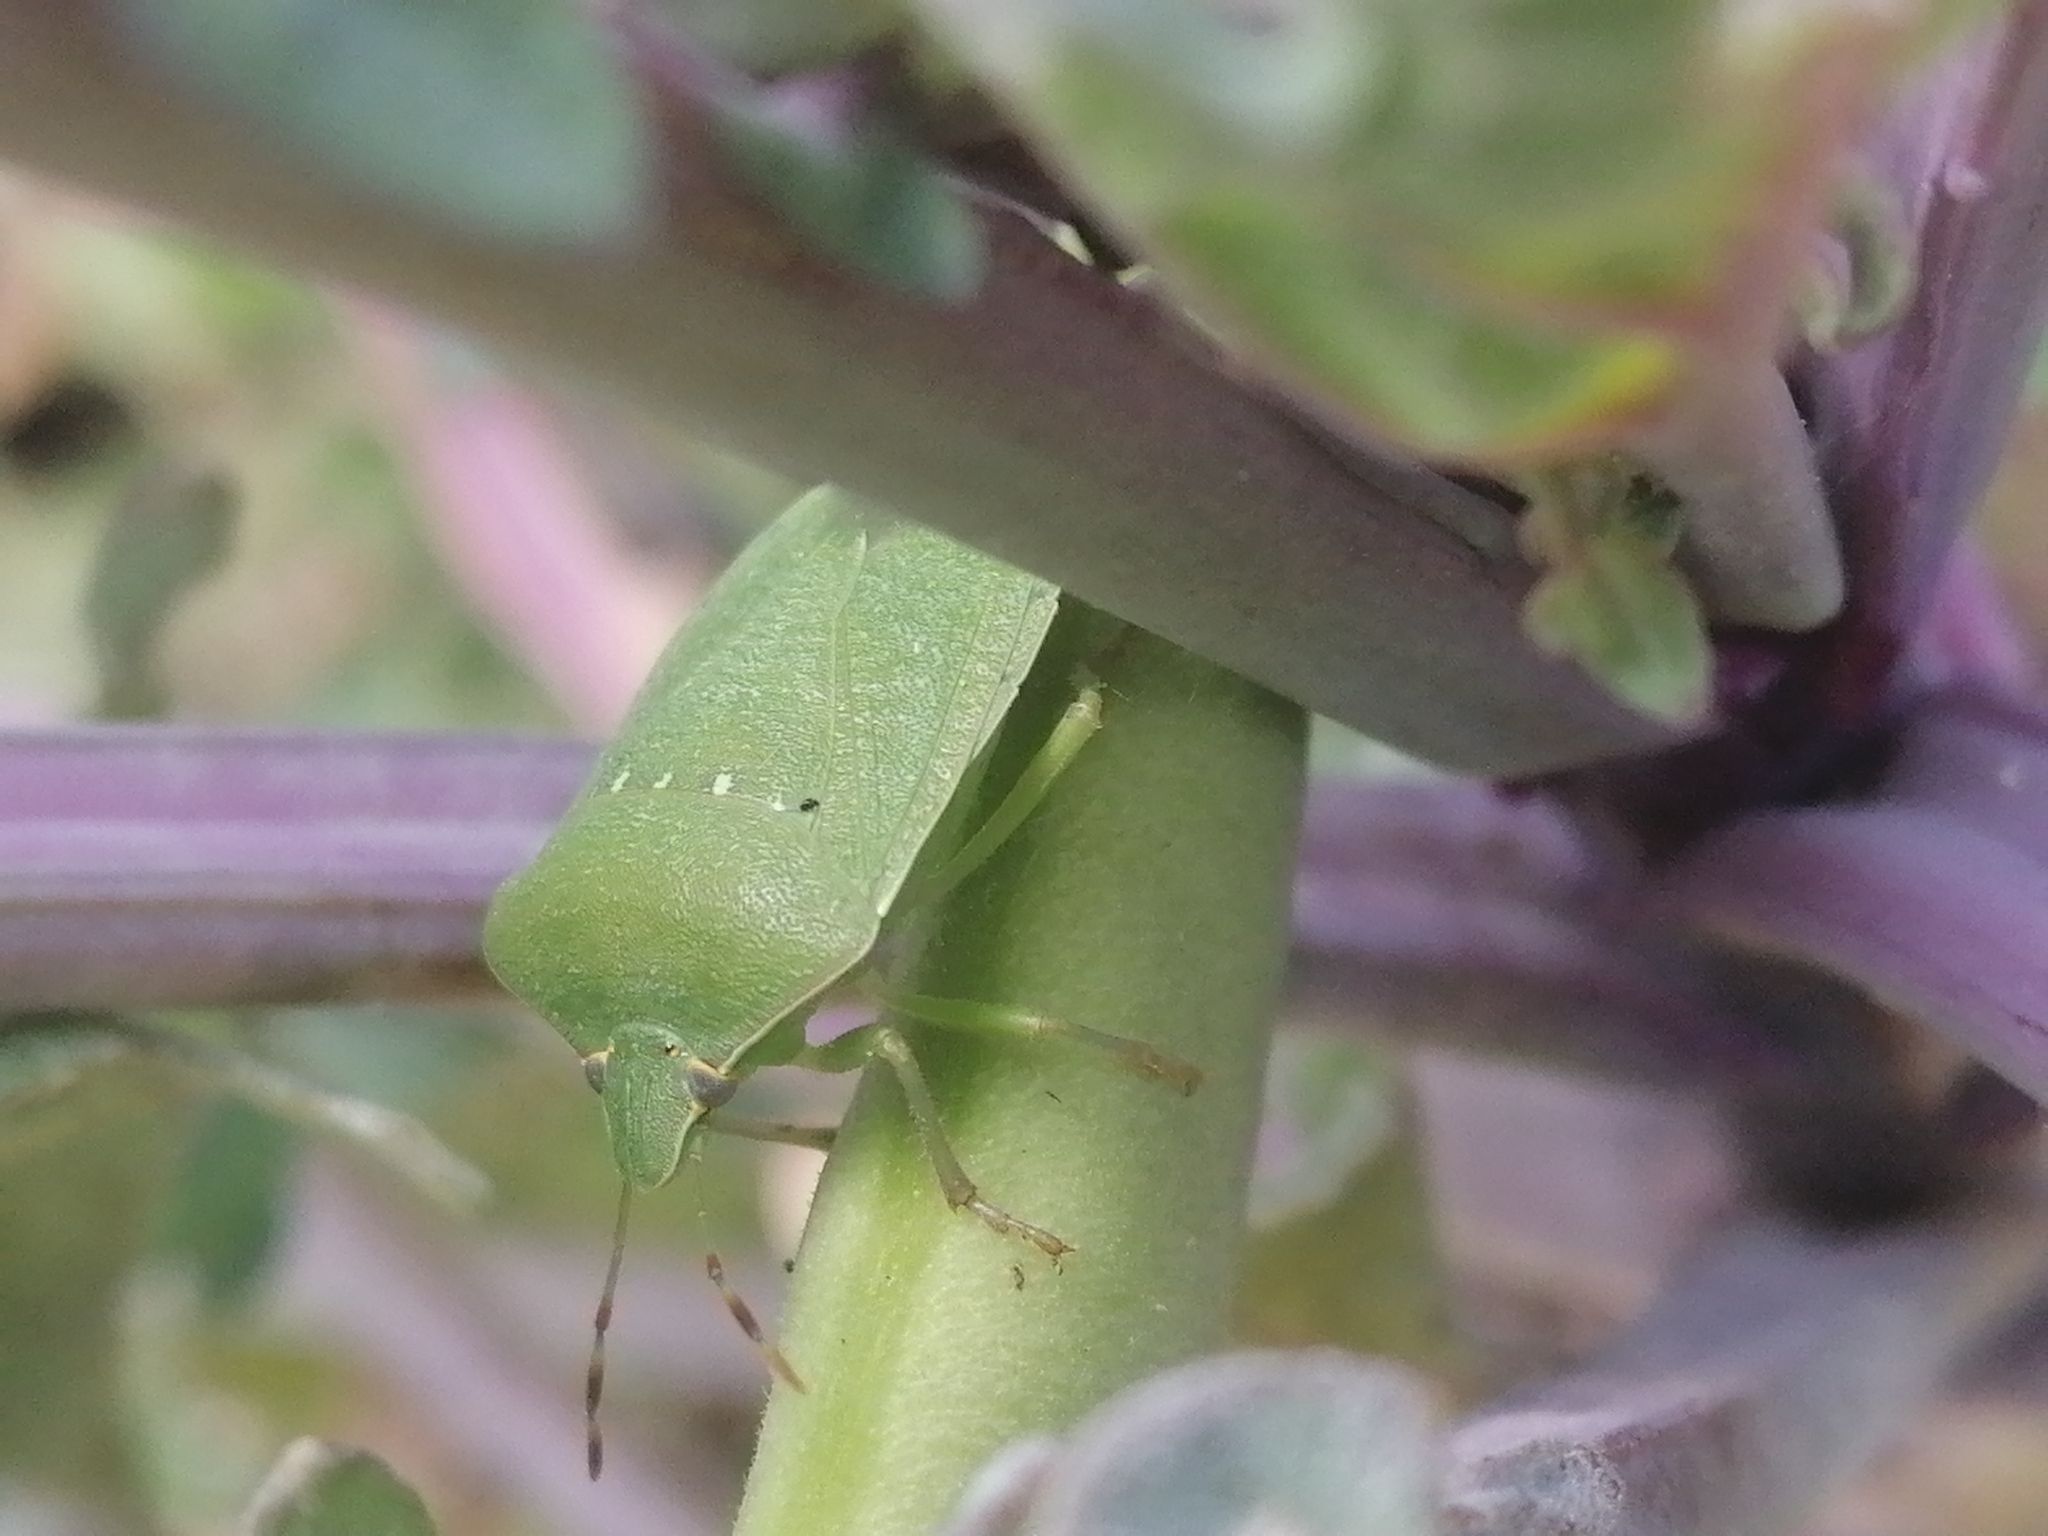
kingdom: Animalia
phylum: Arthropoda
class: Insecta
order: Hemiptera
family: Pentatomidae
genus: Nezara
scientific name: Nezara viridula
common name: Southern green stink bug
